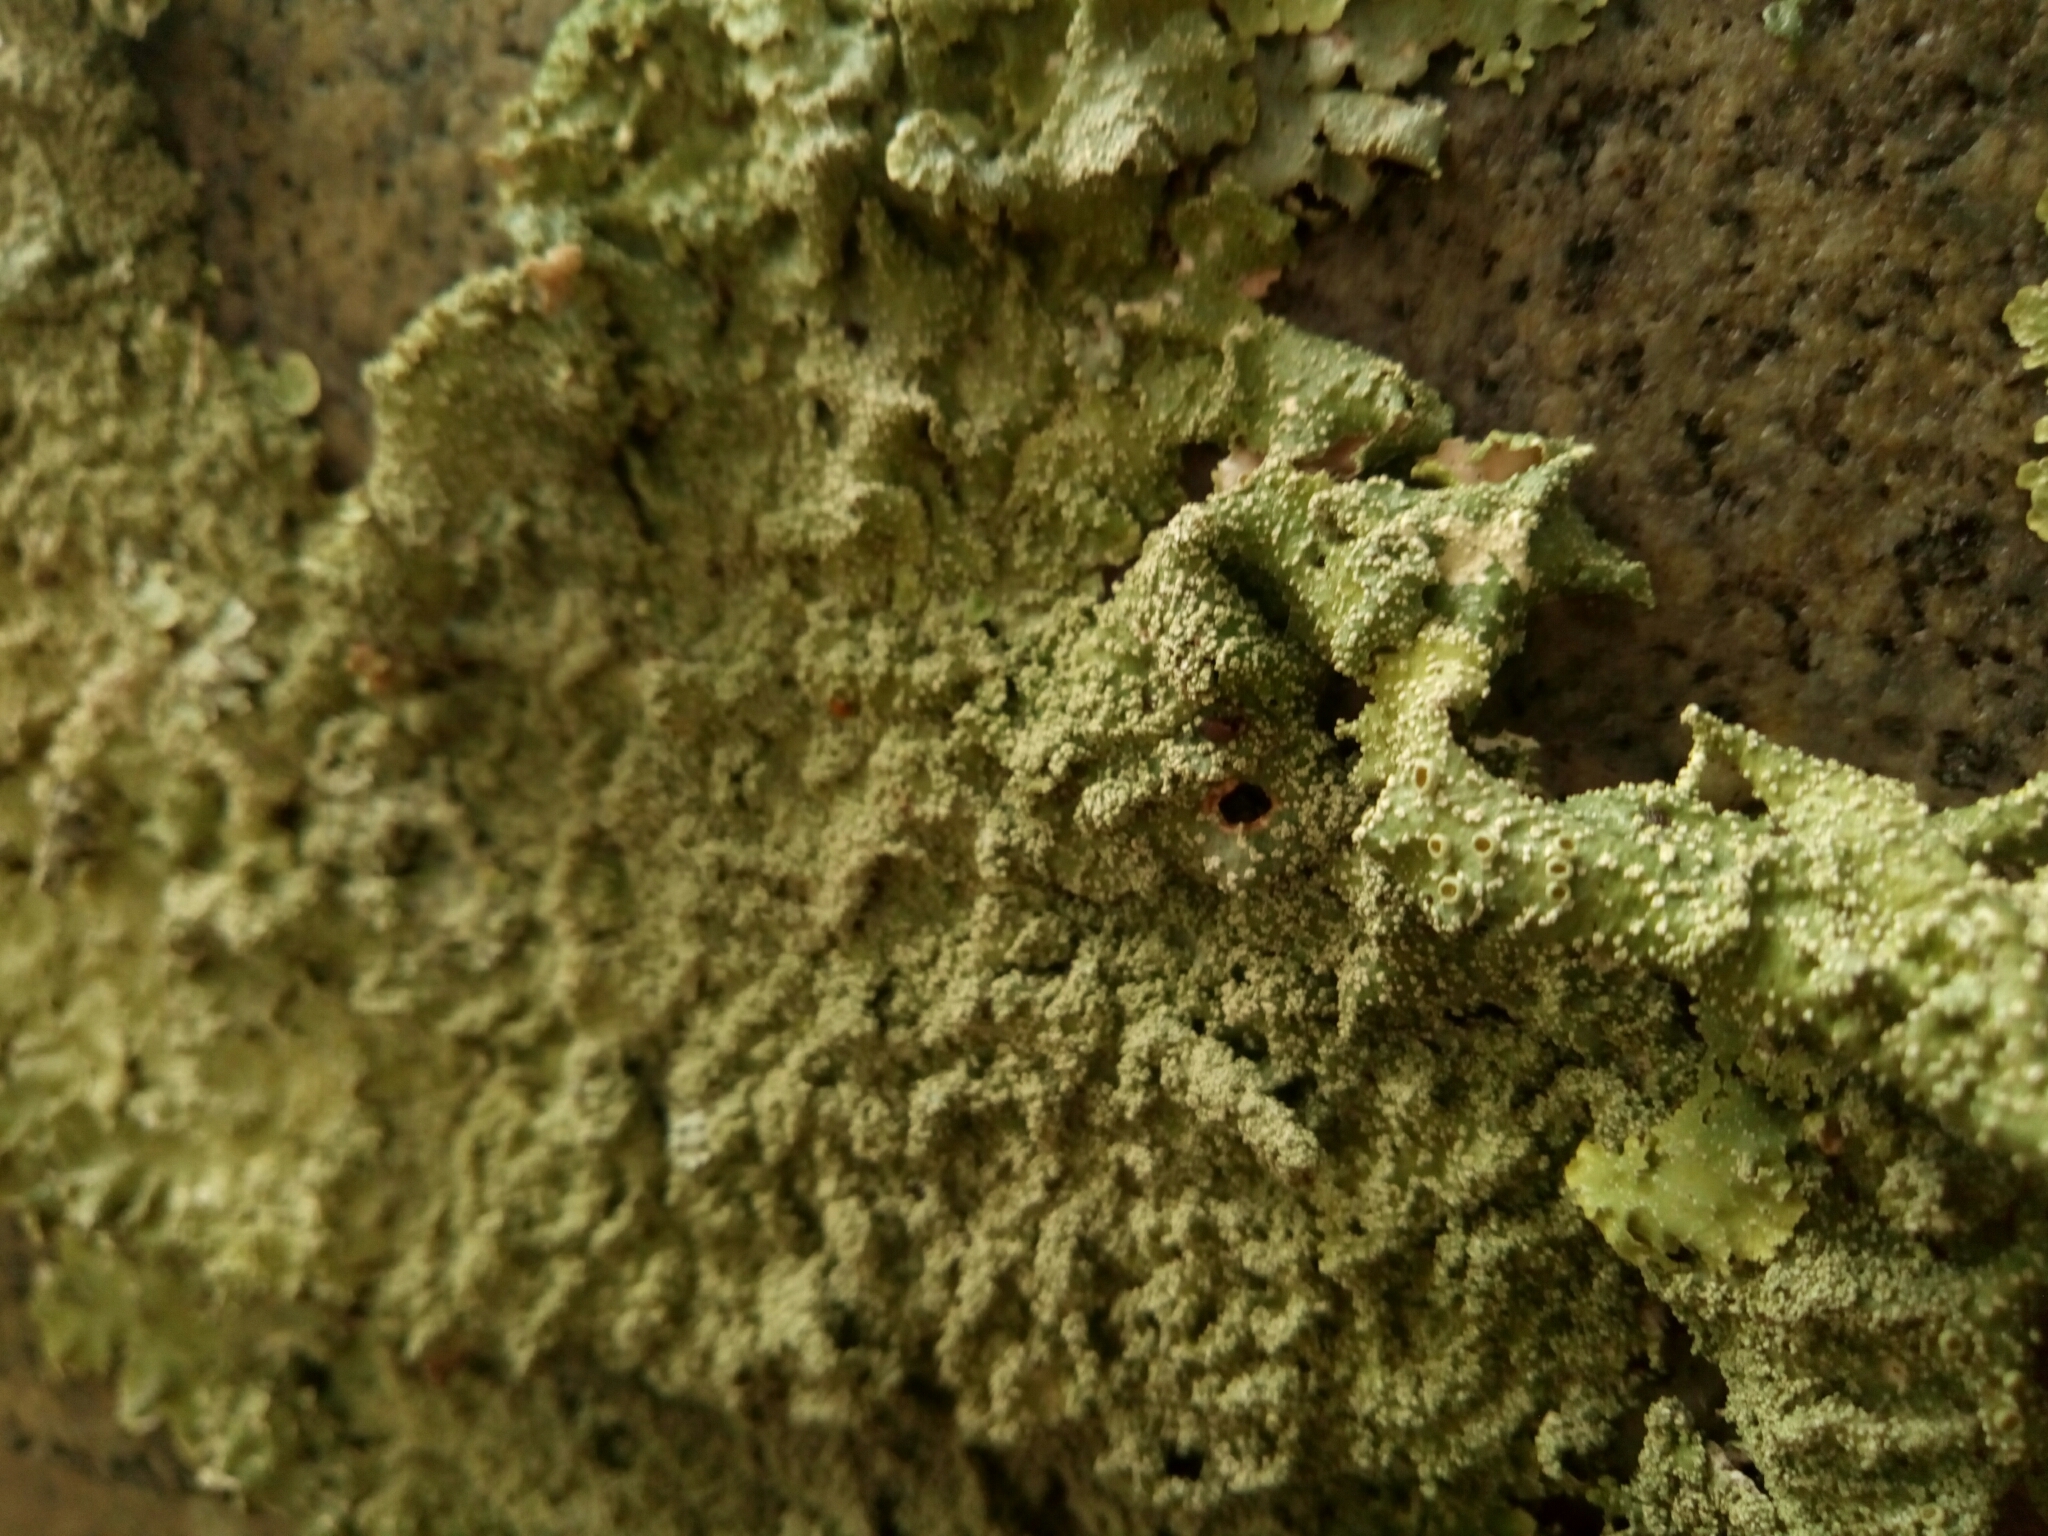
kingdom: Fungi
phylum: Ascomycota
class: Lecanoromycetes
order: Lecanorales
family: Parmeliaceae
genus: Punctelia
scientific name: Punctelia missouriensis
